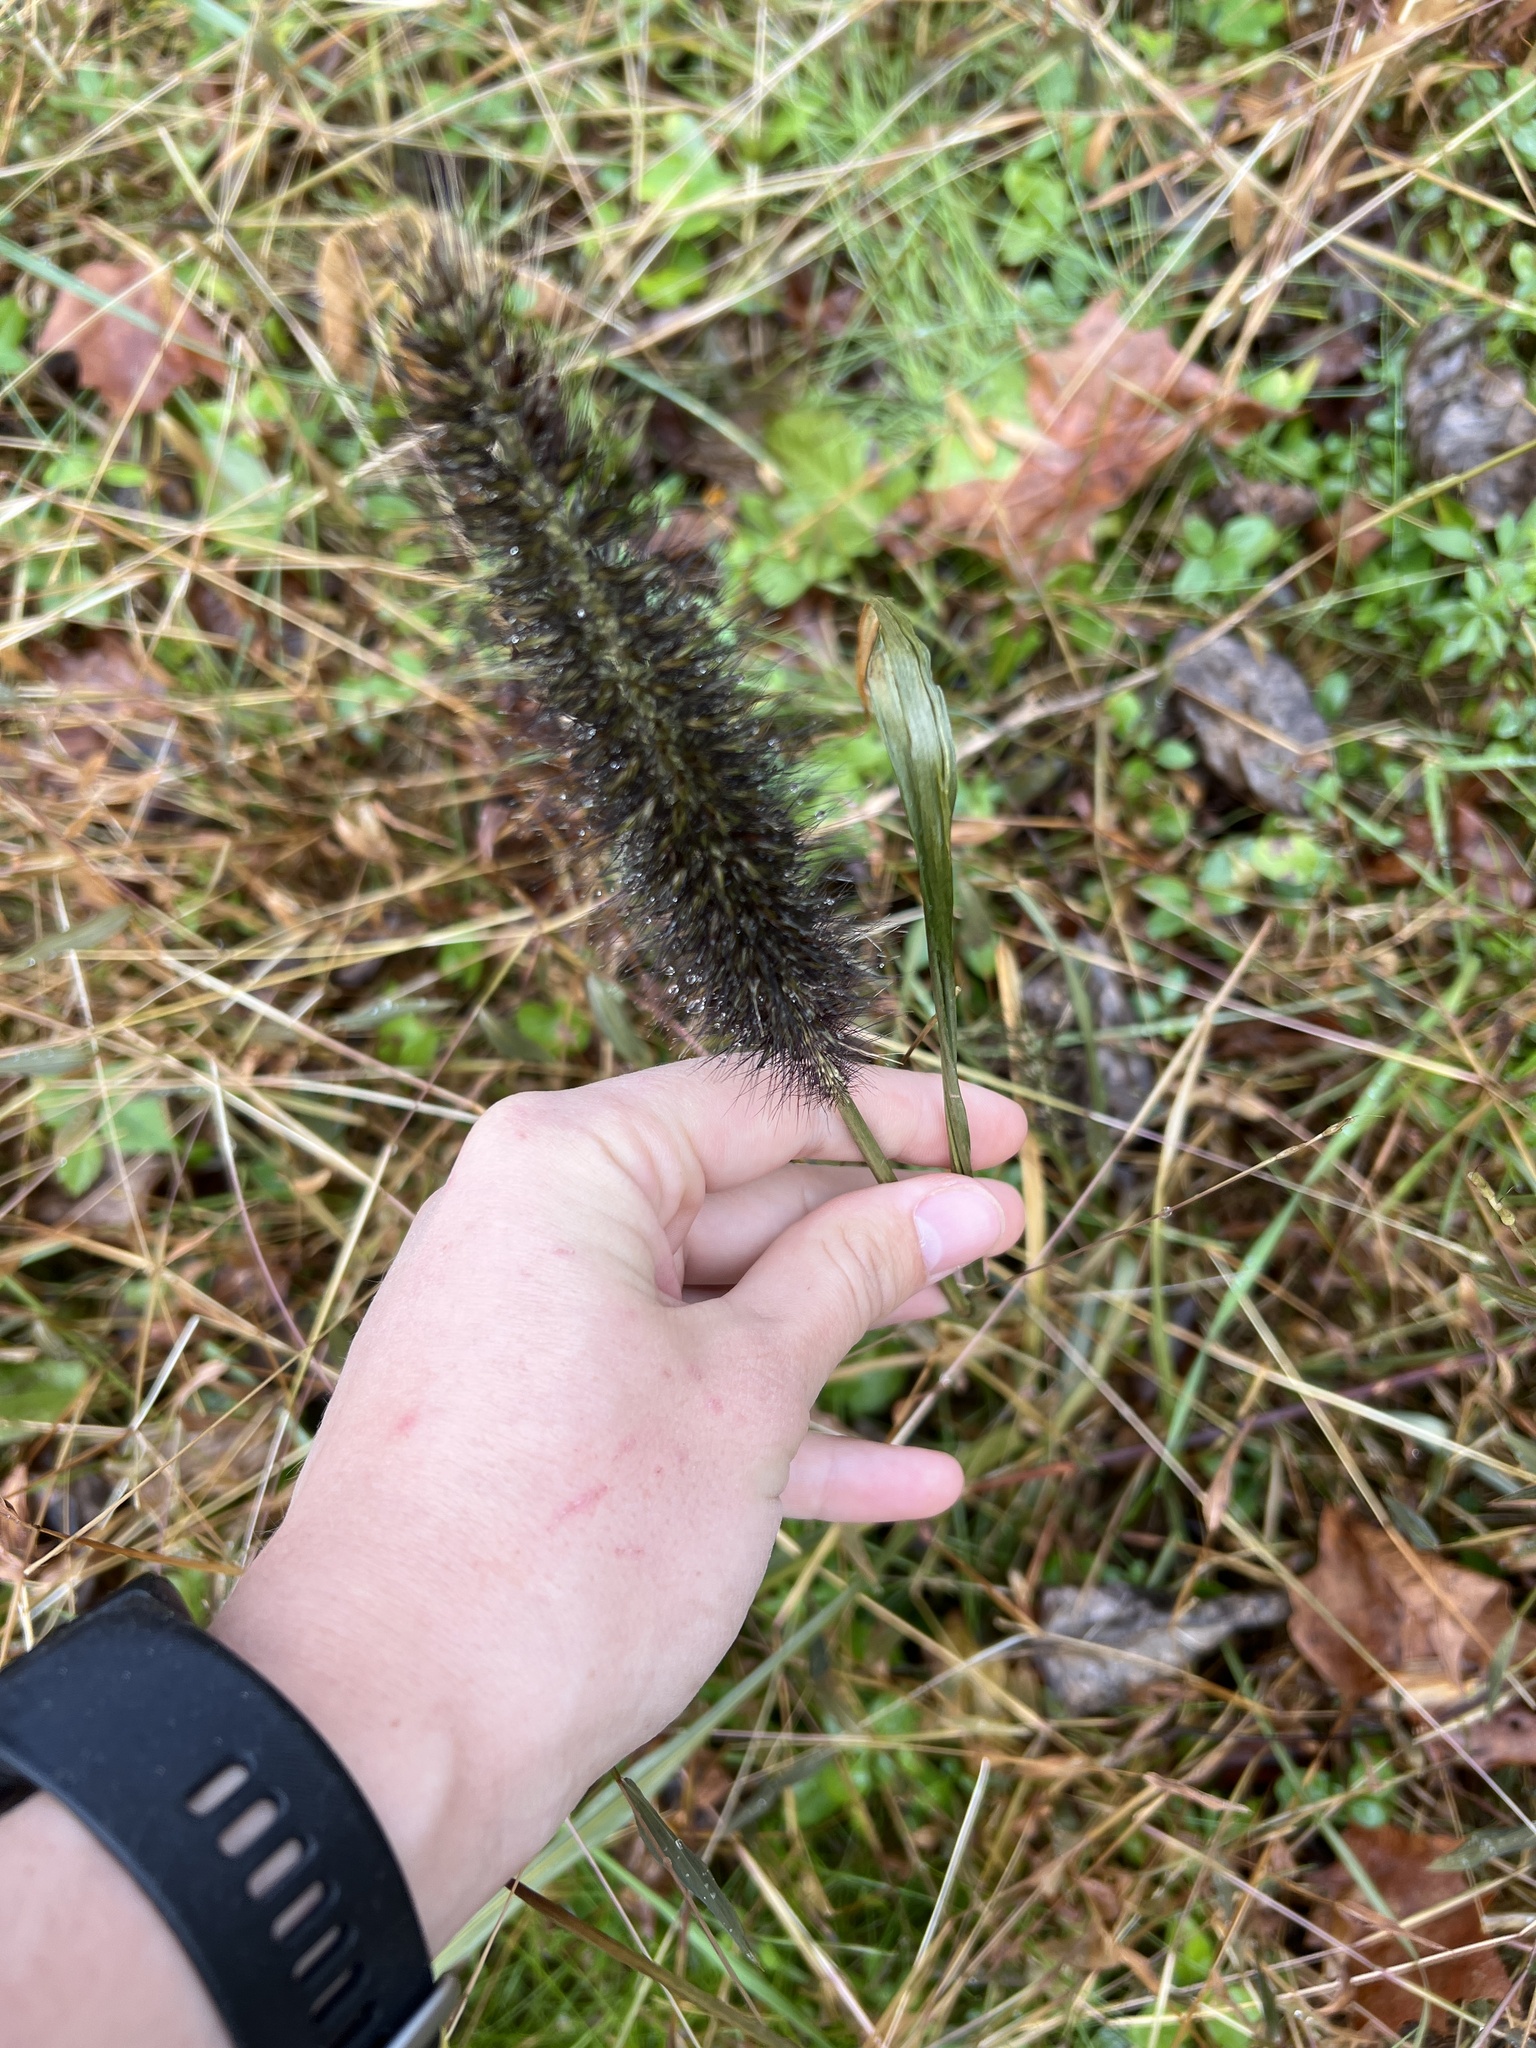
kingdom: Plantae
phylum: Tracheophyta
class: Liliopsida
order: Poales
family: Poaceae
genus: Cenchrus
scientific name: Cenchrus alopecuroides
